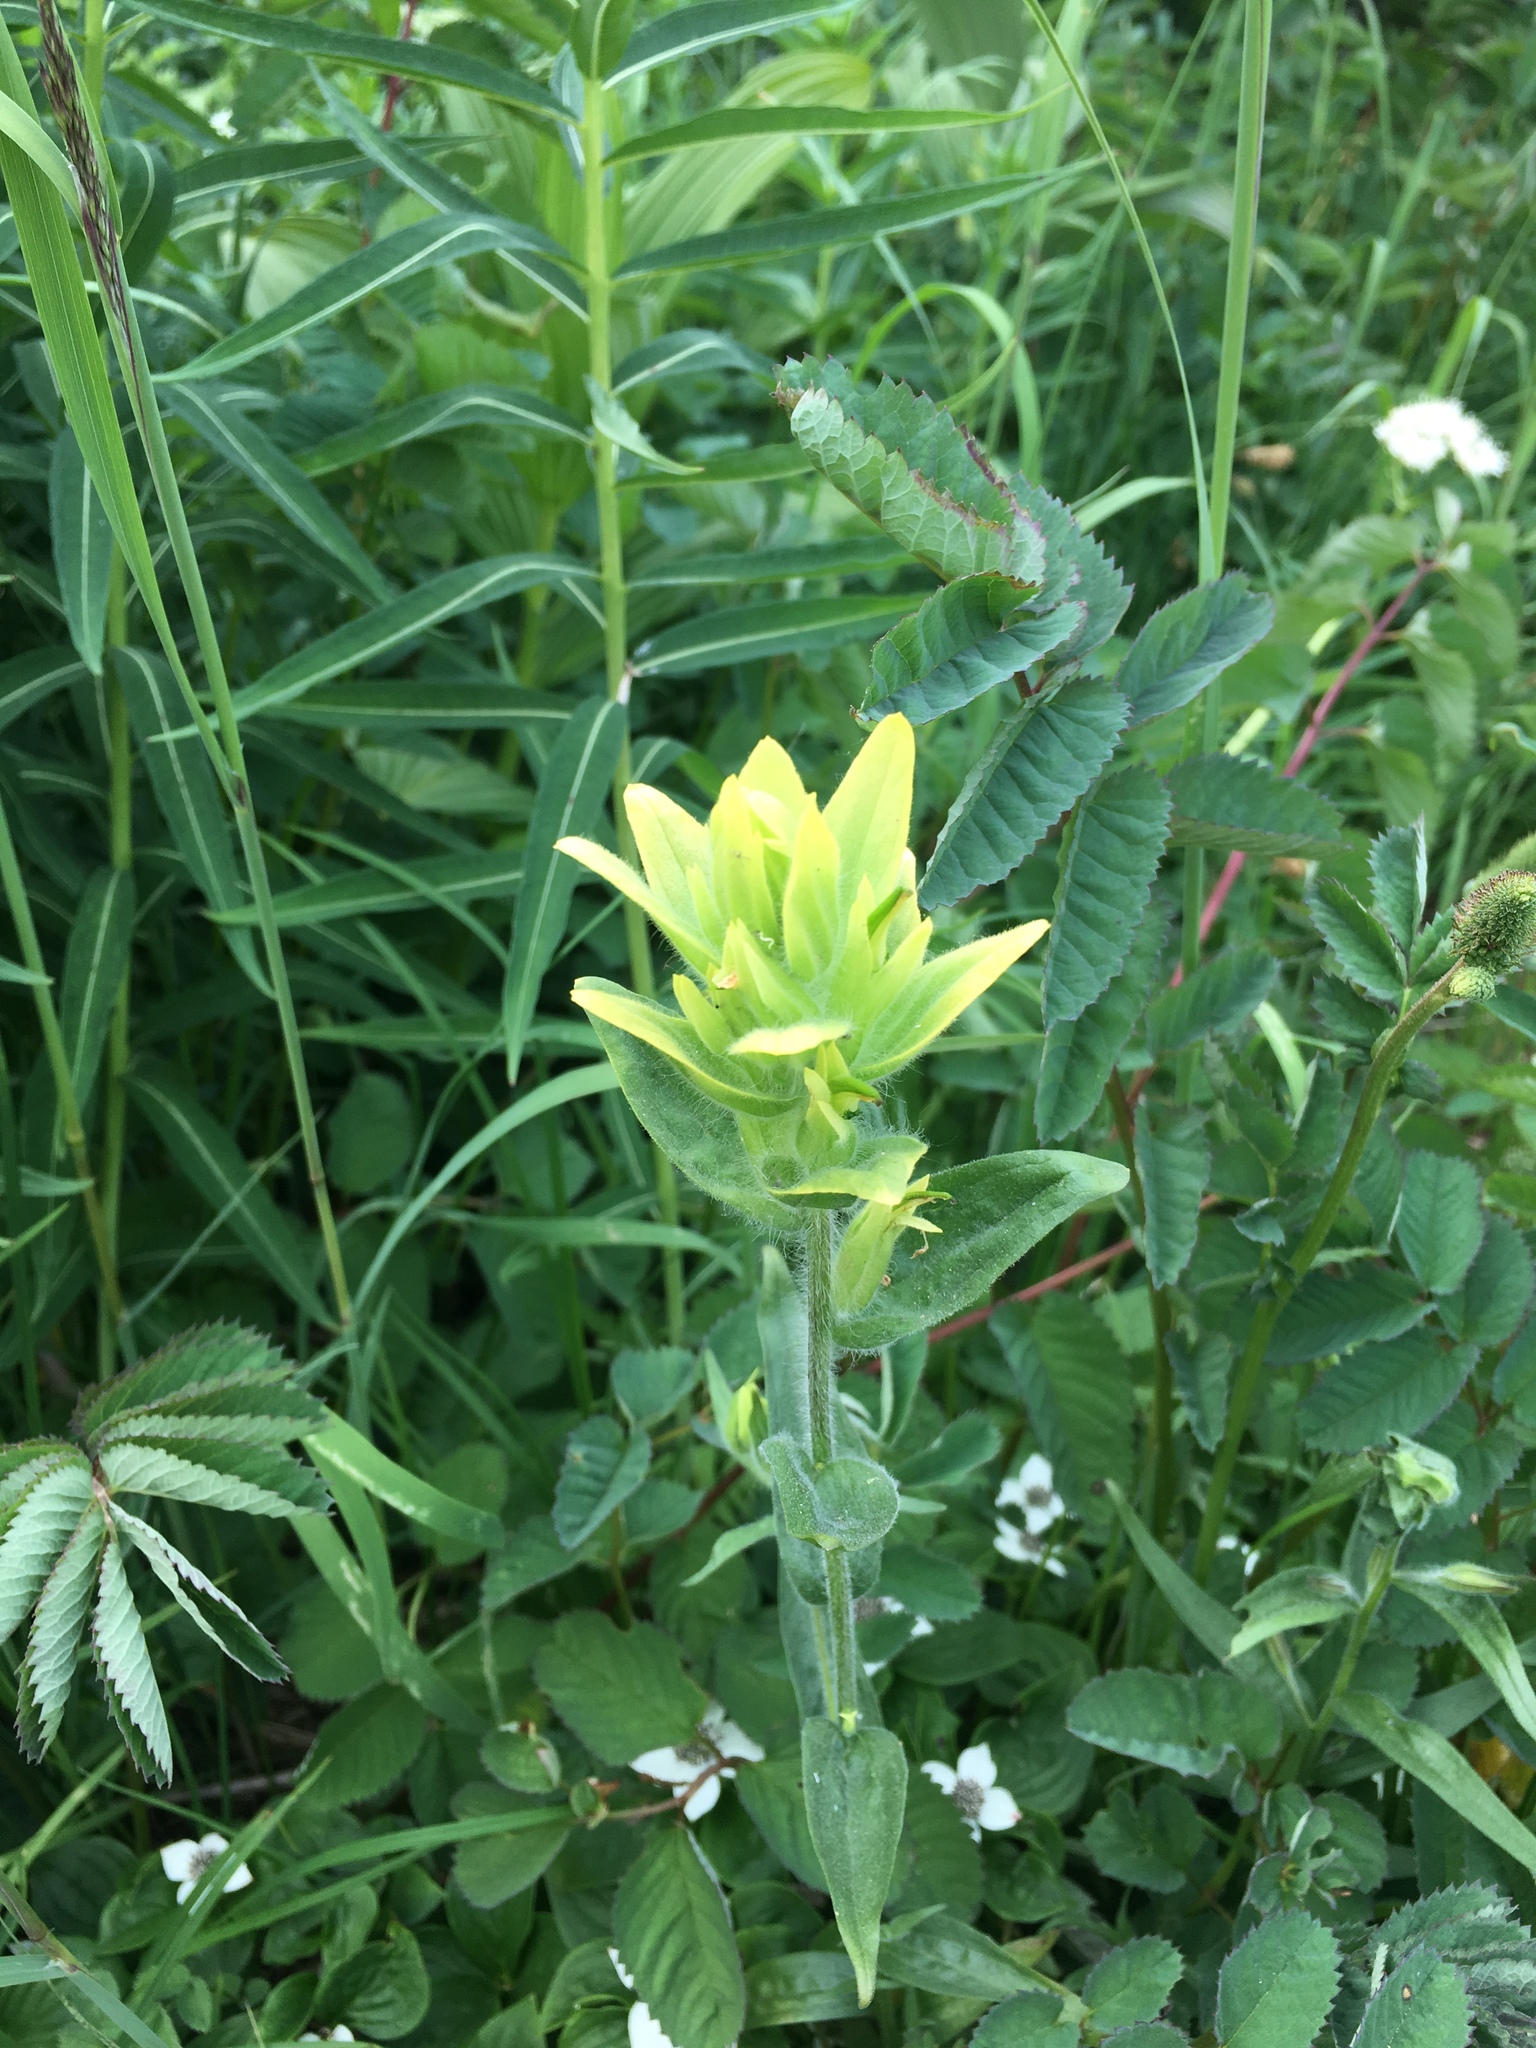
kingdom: Plantae
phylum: Tracheophyta
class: Magnoliopsida
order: Lamiales
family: Orobanchaceae
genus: Castilleja
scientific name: Castilleja unalaschcensis
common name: Unalaska paintbrush
